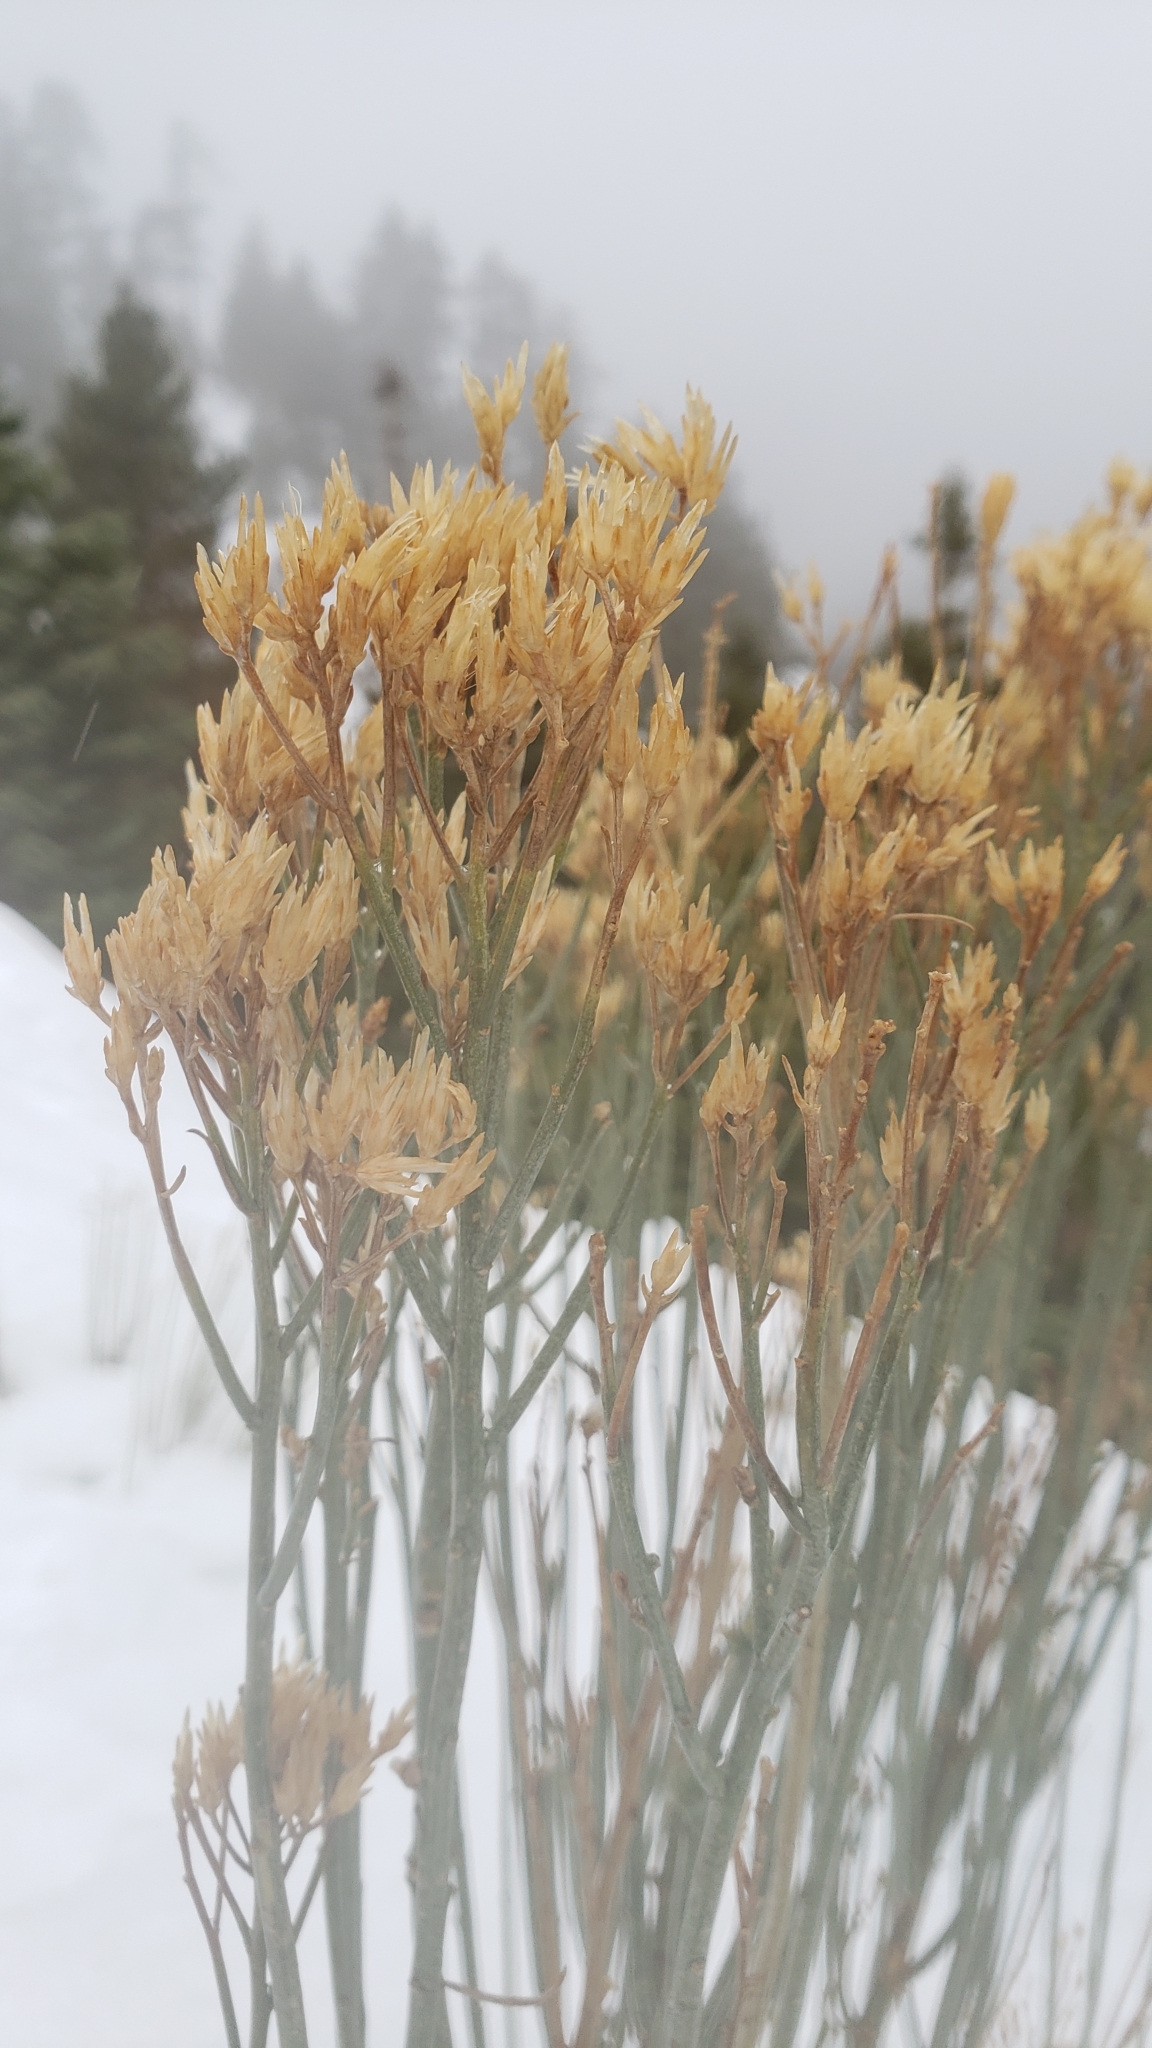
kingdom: Plantae
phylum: Tracheophyta
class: Magnoliopsida
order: Asterales
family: Asteraceae
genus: Ericameria
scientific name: Ericameria nauseosa
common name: Rubber rabbitbrush
